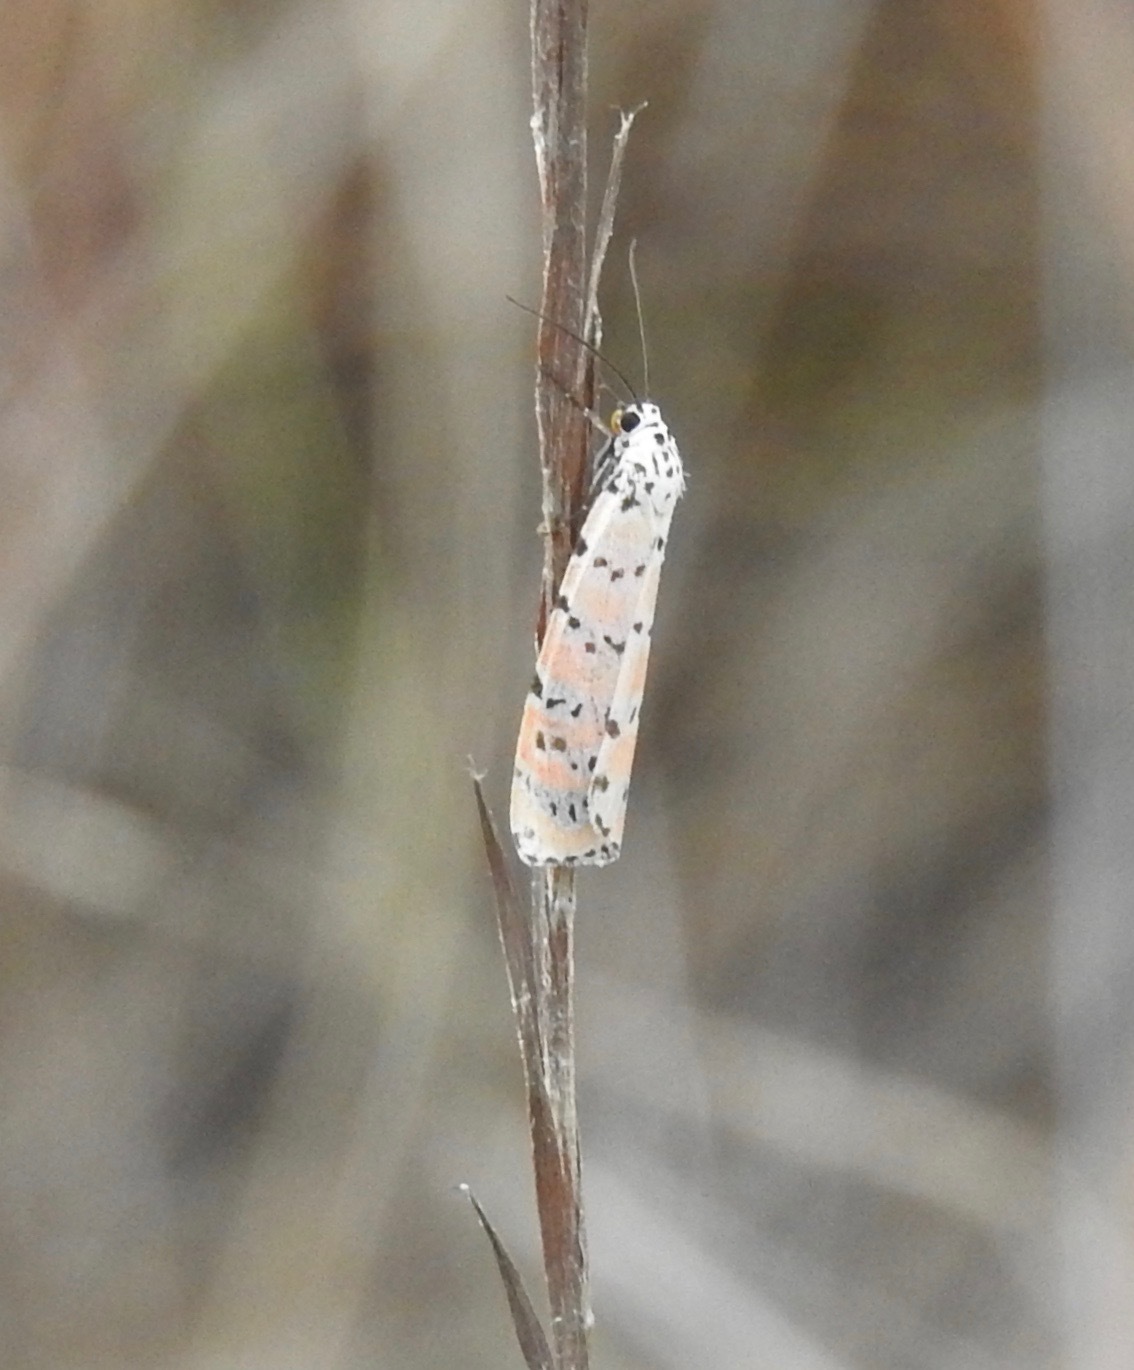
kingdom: Animalia
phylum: Arthropoda
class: Insecta
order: Lepidoptera
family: Erebidae
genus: Utetheisa
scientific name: Utetheisa ornatrix
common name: Beautiful utetheisa
